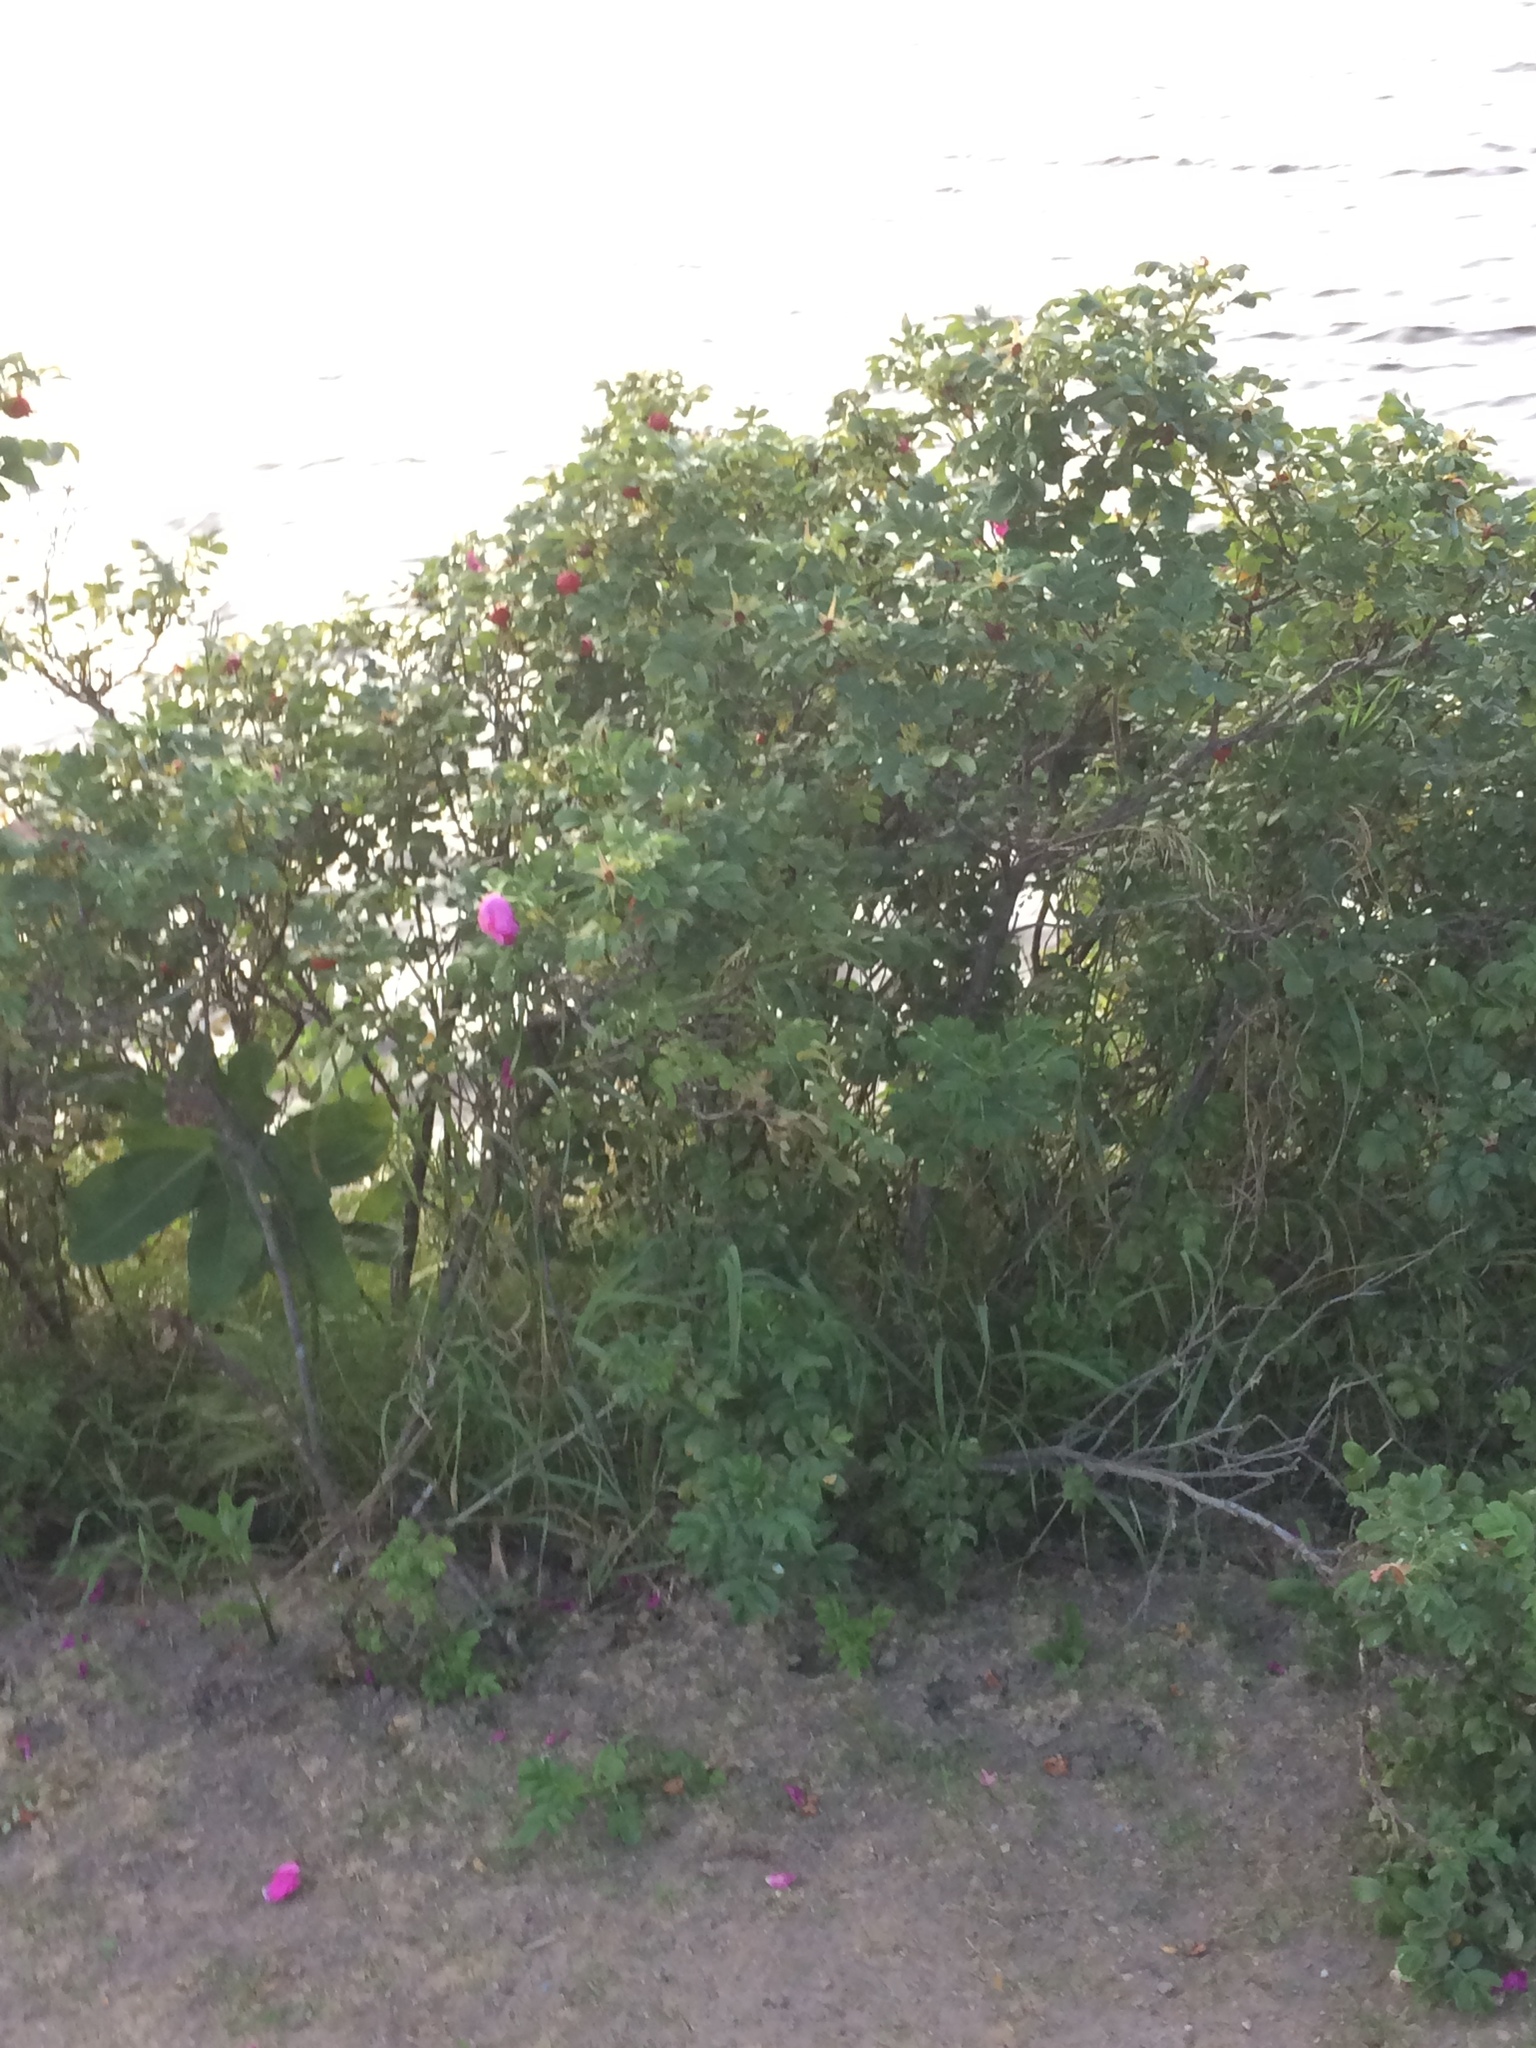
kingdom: Plantae
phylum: Tracheophyta
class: Magnoliopsida
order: Rosales
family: Rosaceae
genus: Rosa
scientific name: Rosa rugosa
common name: Japanese rose
